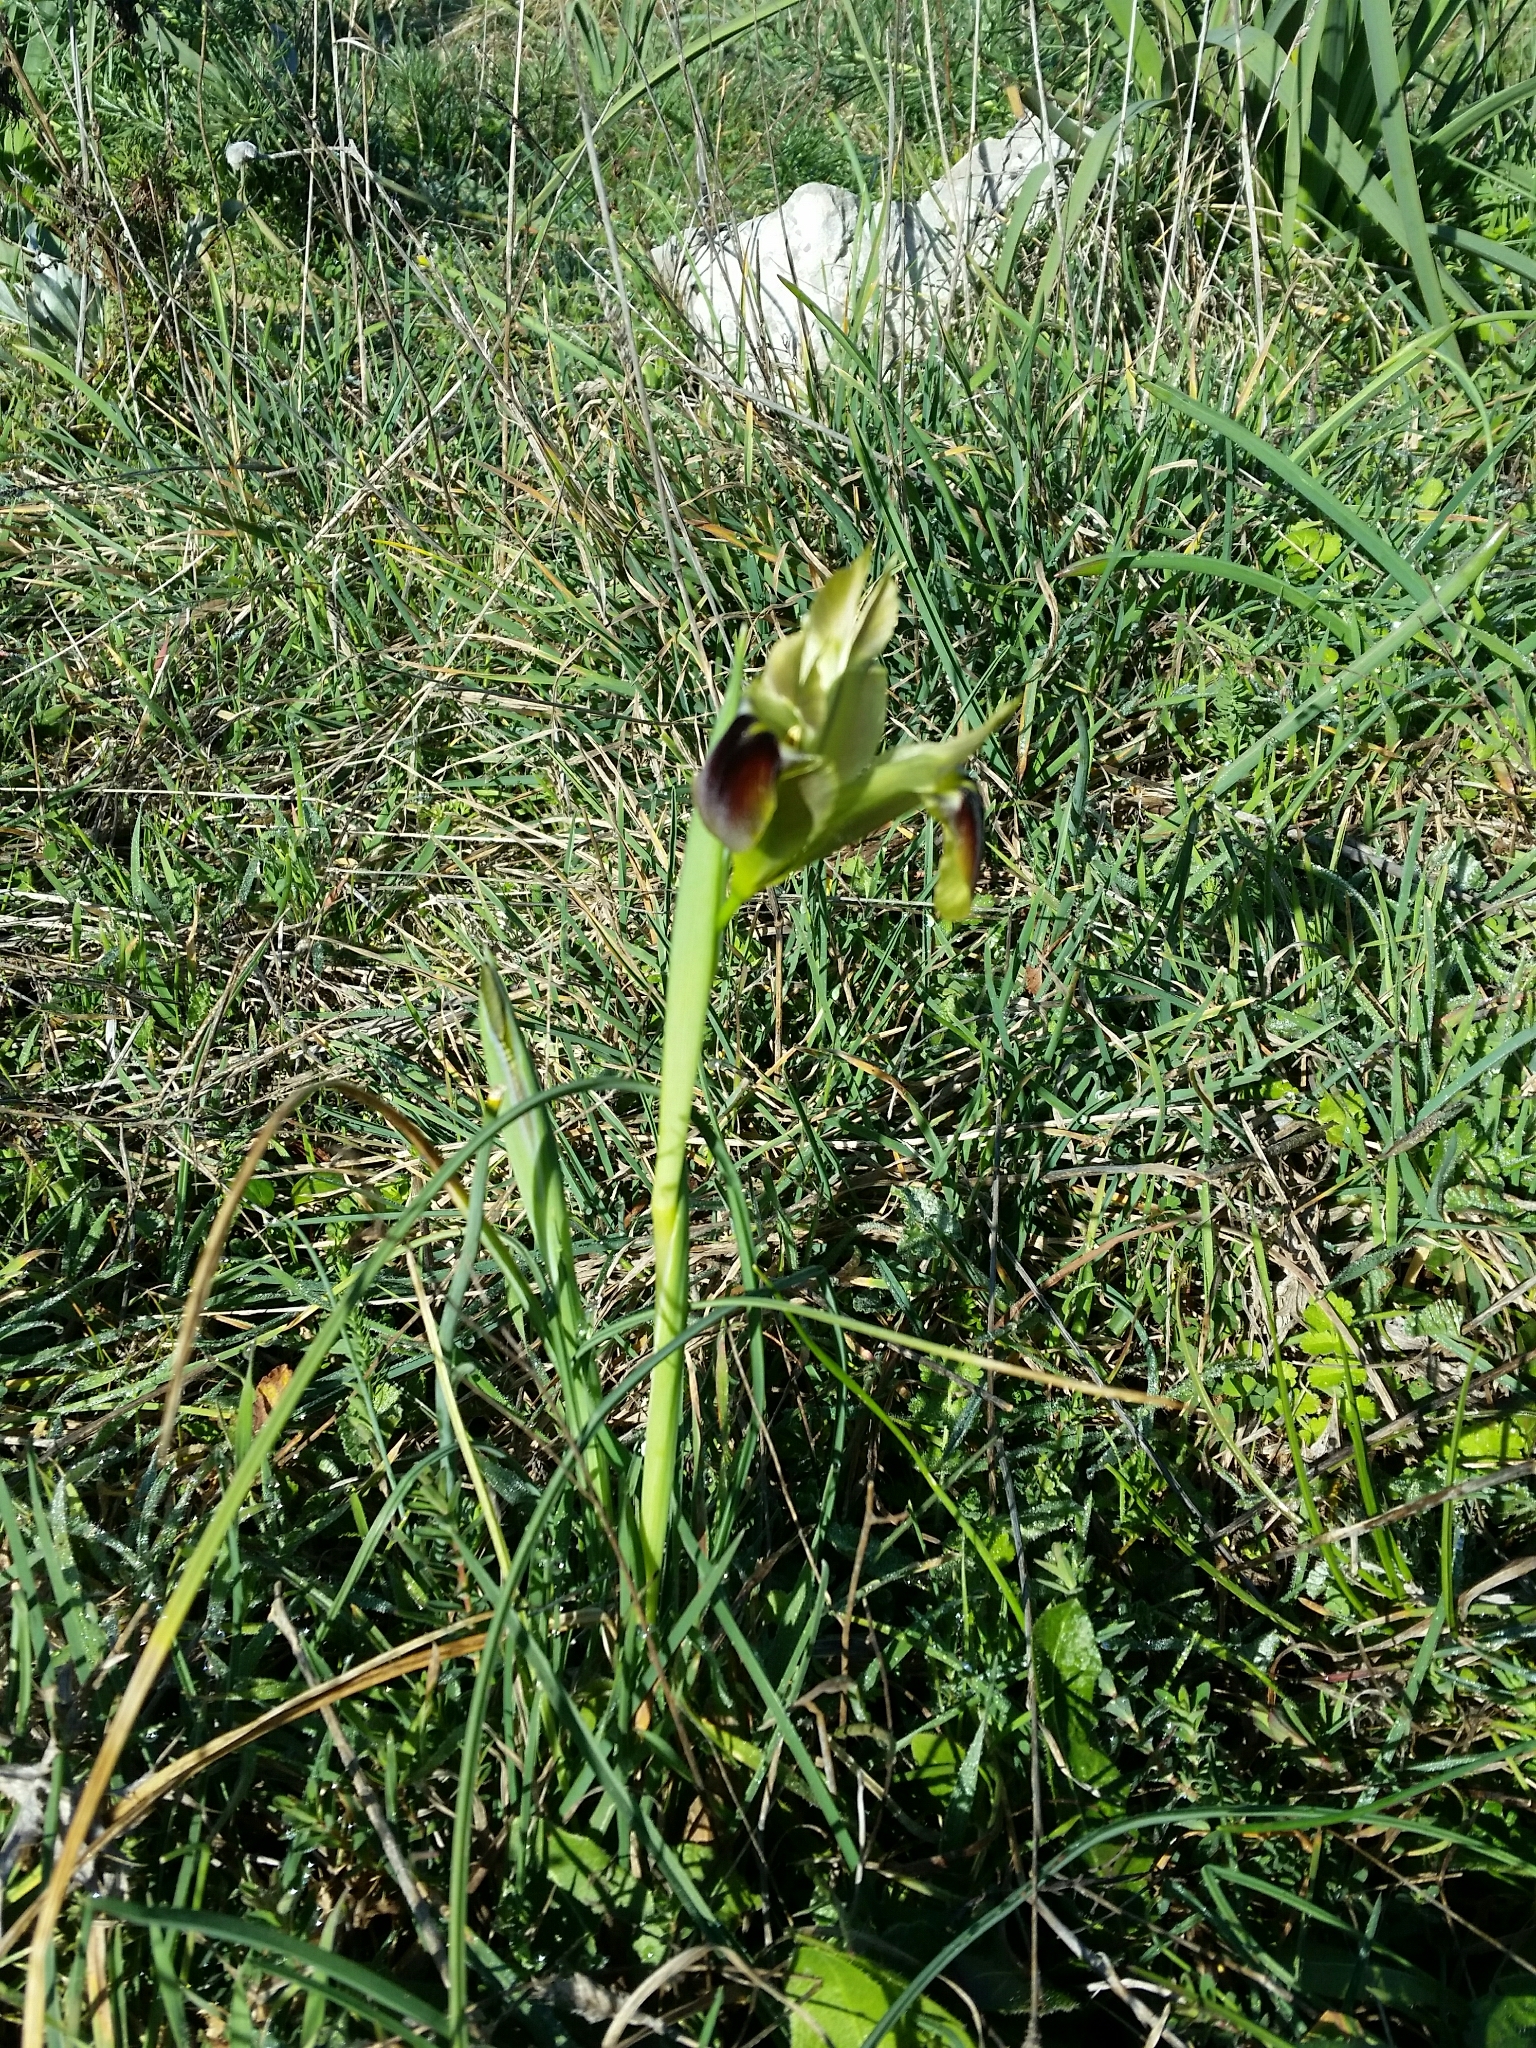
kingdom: Plantae
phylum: Tracheophyta
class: Liliopsida
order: Asparagales
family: Iridaceae
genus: Iris
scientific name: Iris tuberosa
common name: Snake's-head iris
